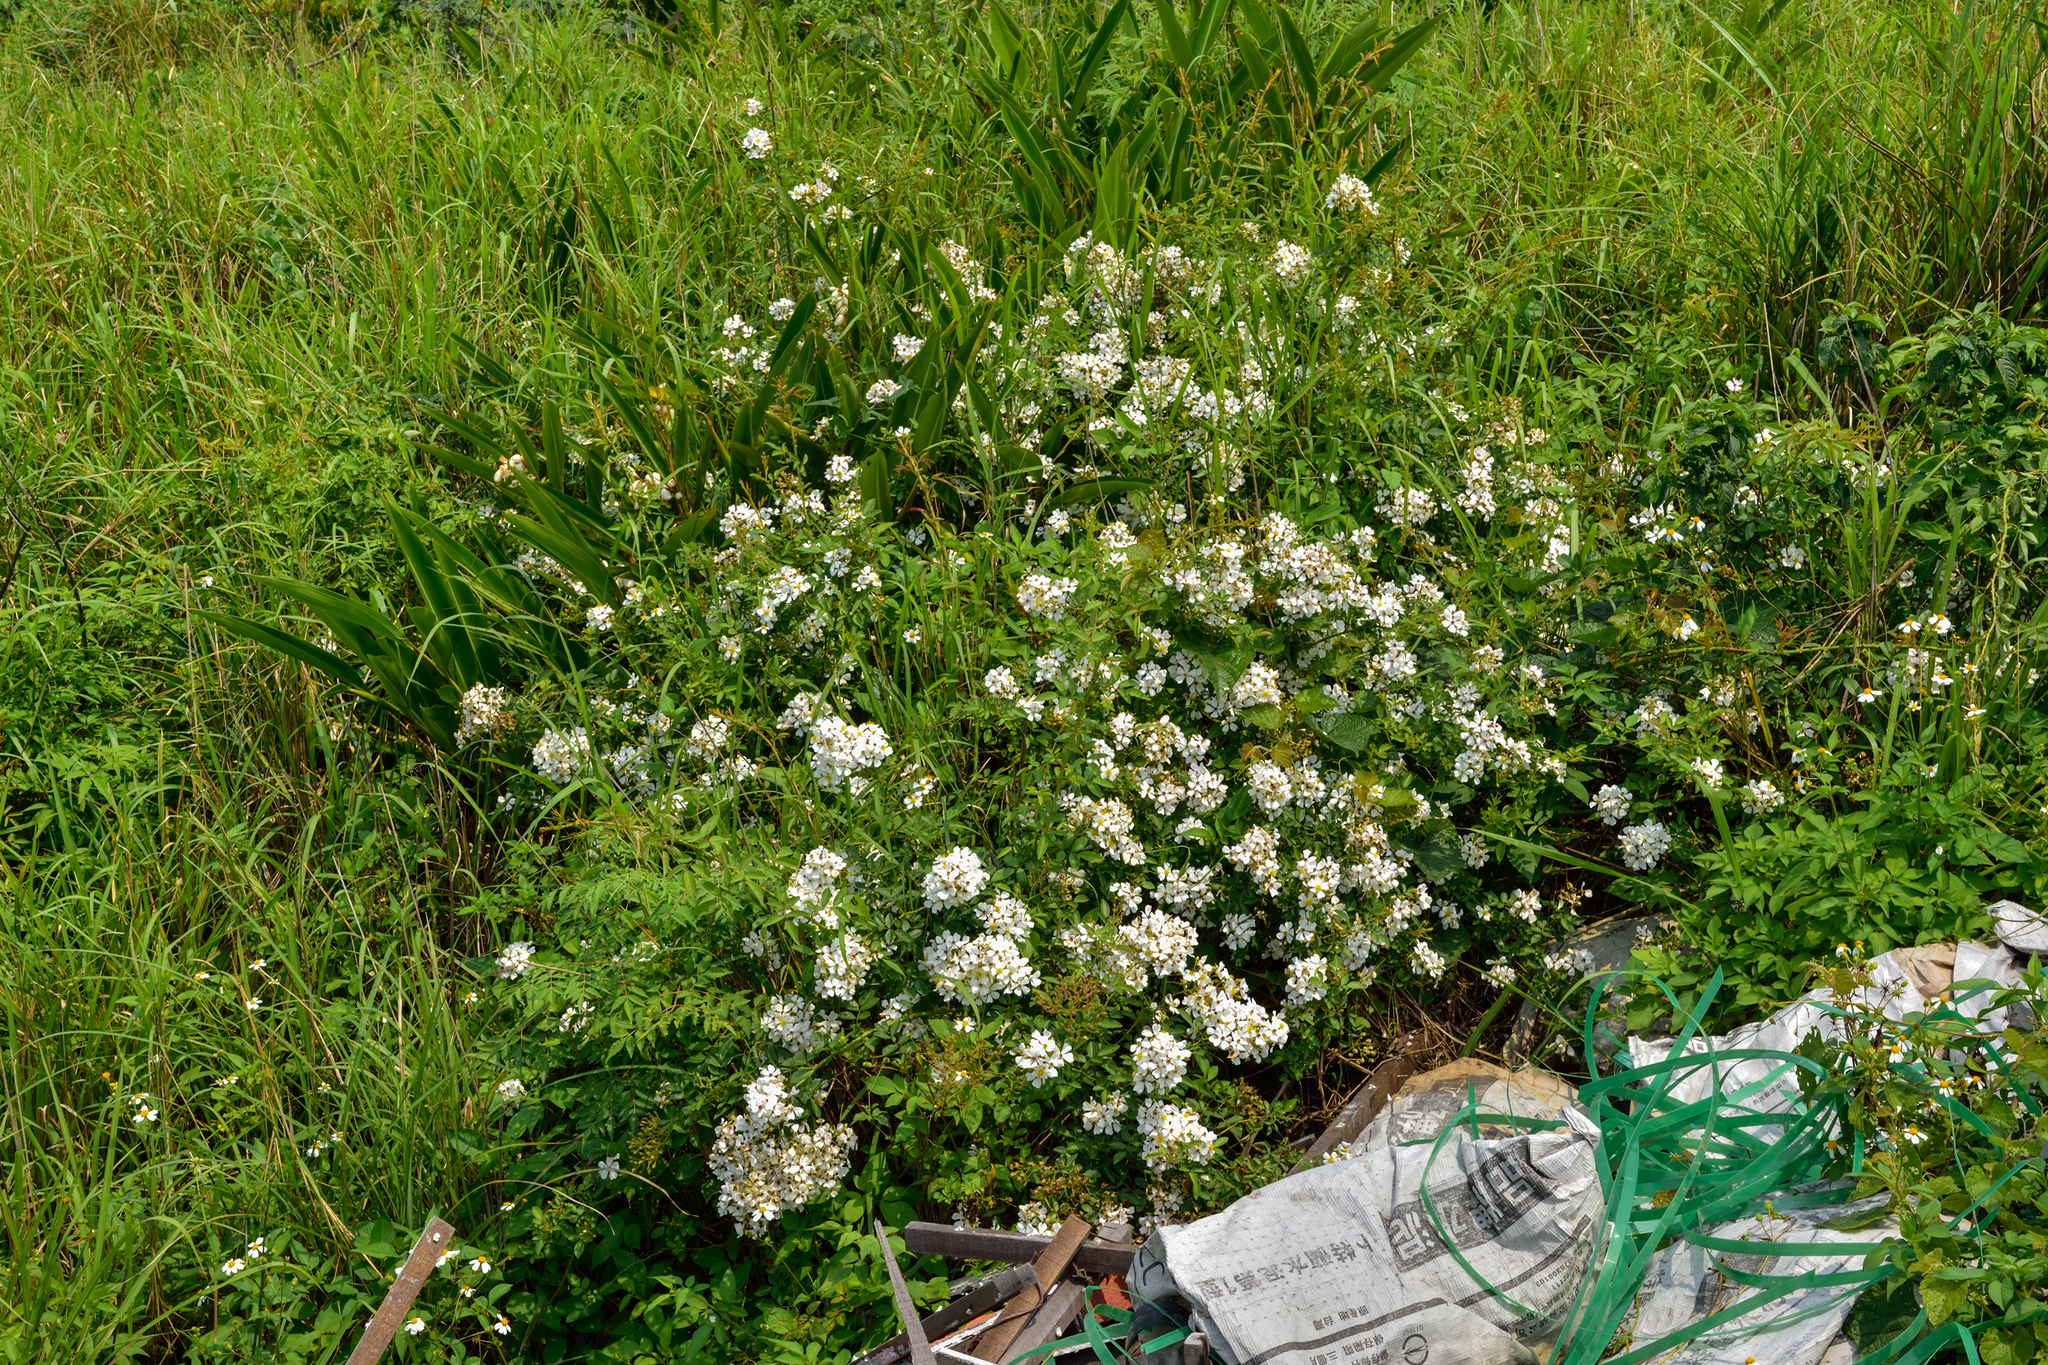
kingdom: Plantae
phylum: Tracheophyta
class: Magnoliopsida
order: Rosales
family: Rosaceae
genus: Rosa
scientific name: Rosa kwangtungensis
